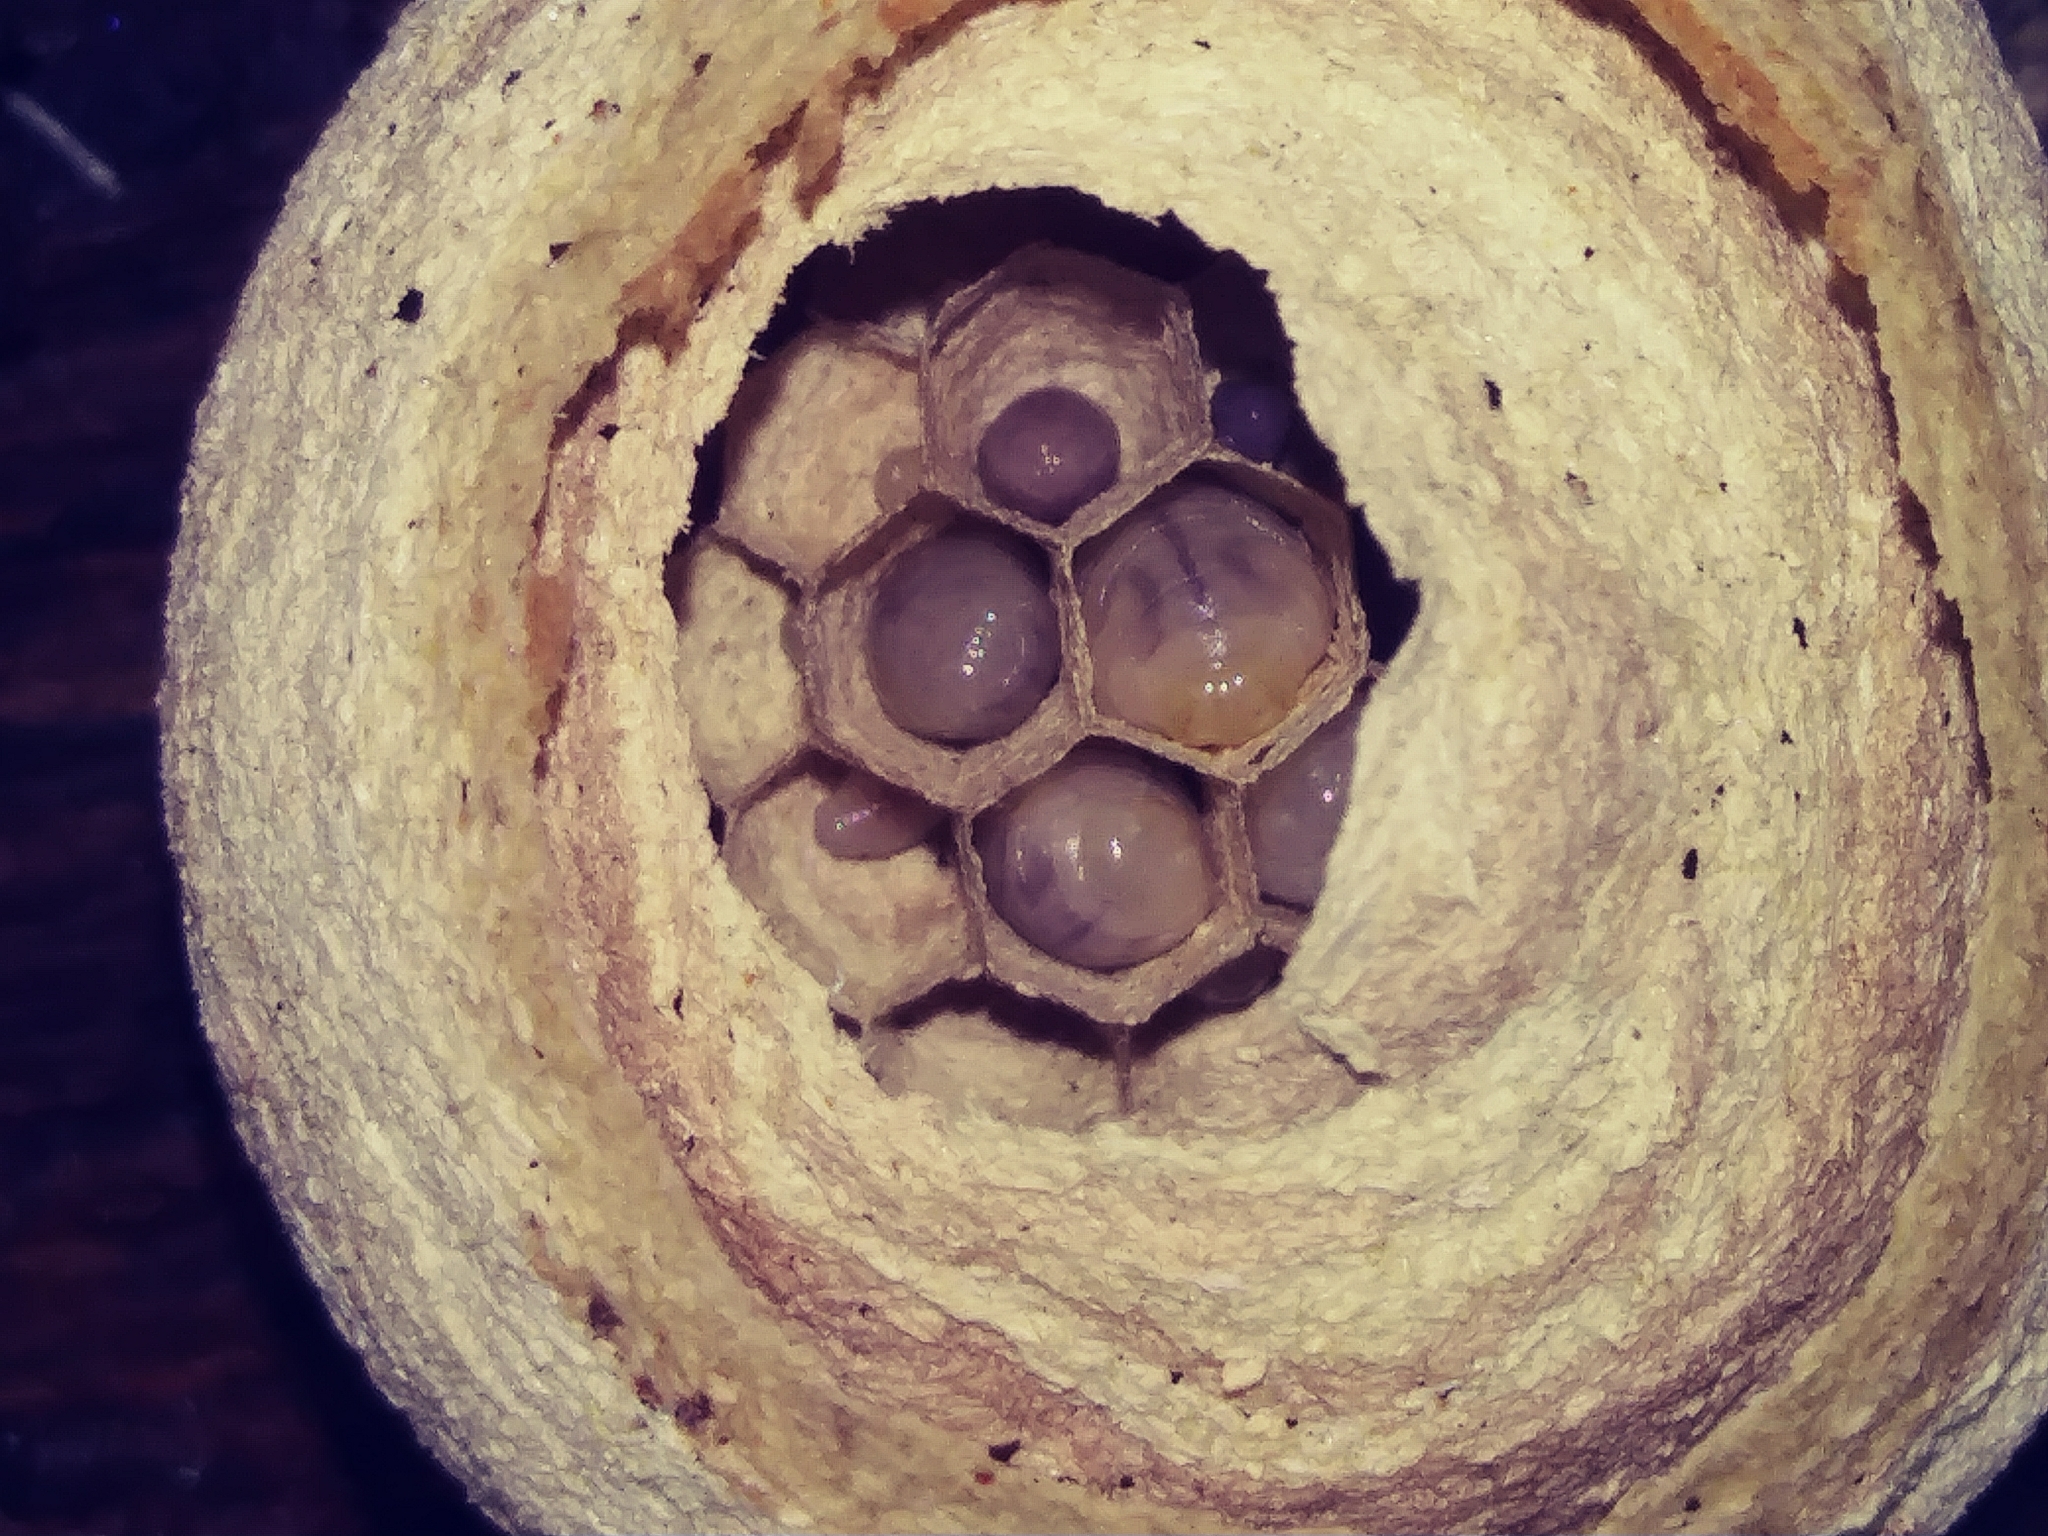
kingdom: Animalia
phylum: Arthropoda
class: Insecta
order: Hymenoptera
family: Vespidae
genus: Vespula
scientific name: Vespula
